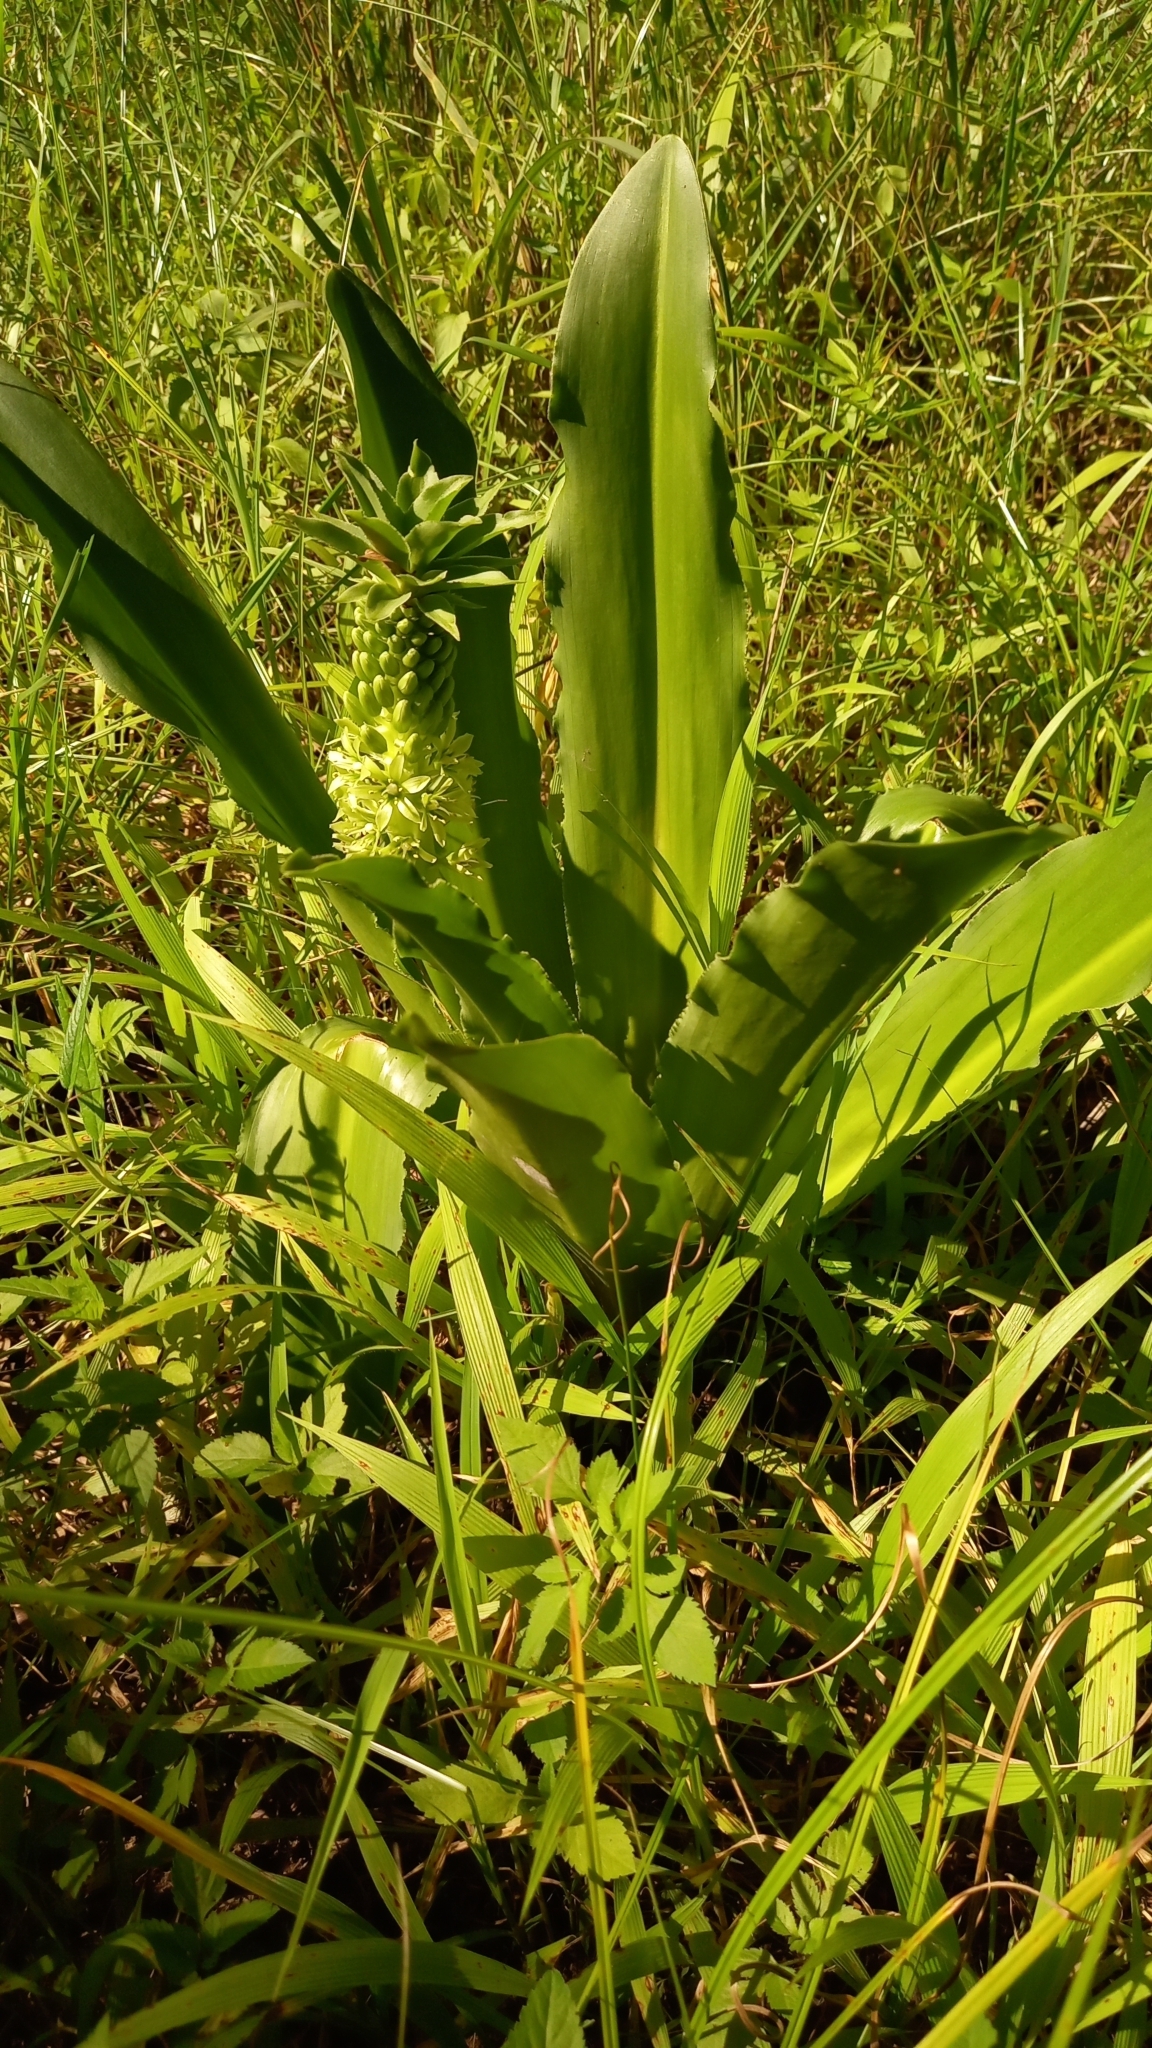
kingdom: Plantae
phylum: Tracheophyta
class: Liliopsida
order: Asparagales
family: Asparagaceae
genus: Eucomis
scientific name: Eucomis autumnalis
